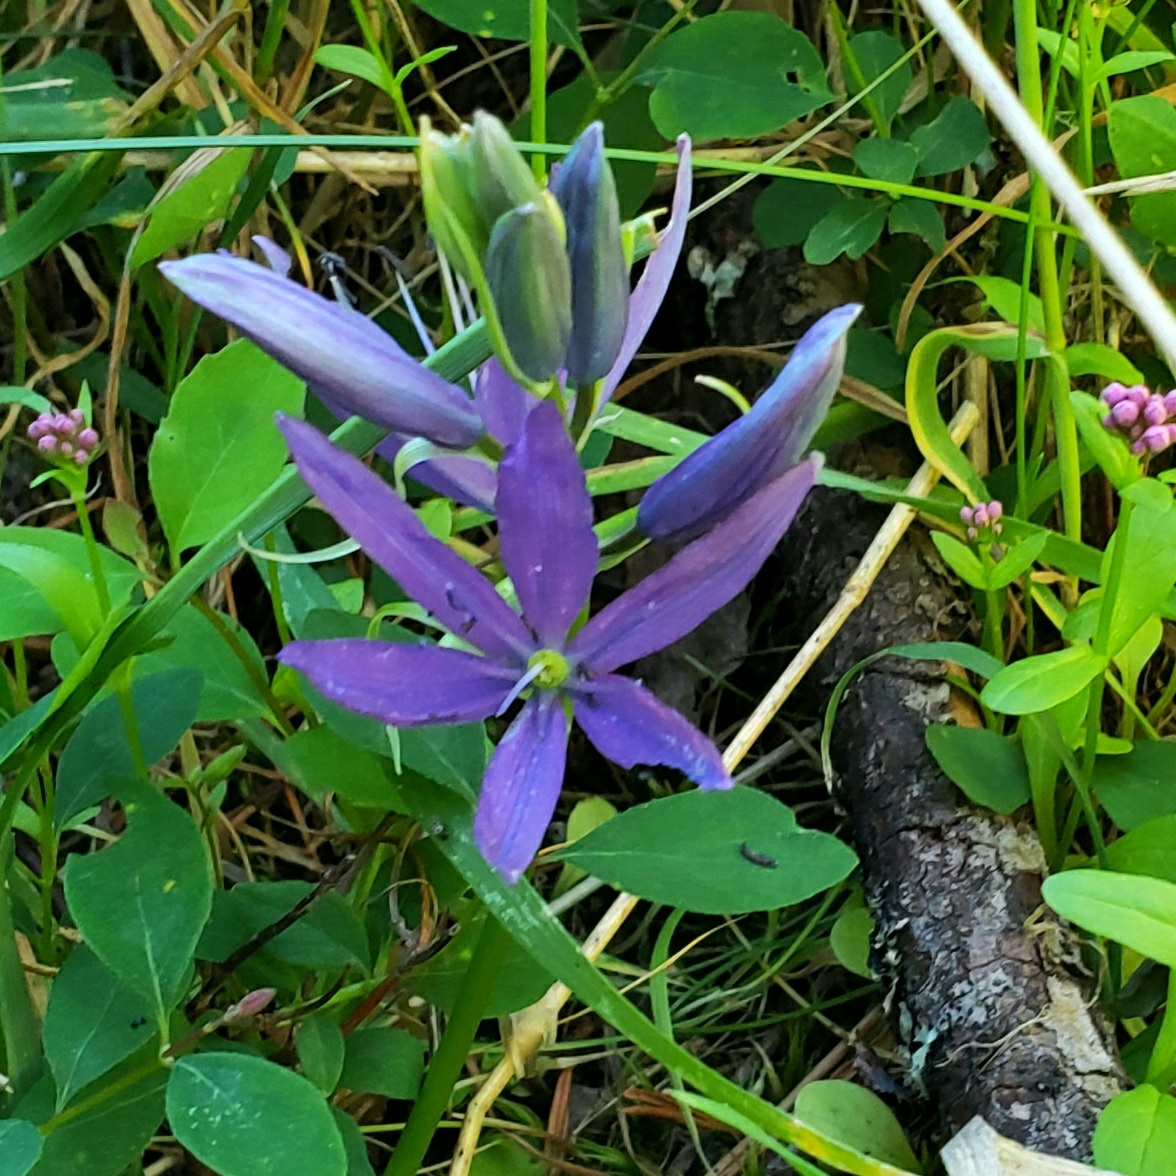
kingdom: Plantae
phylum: Tracheophyta
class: Liliopsida
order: Asparagales
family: Asparagaceae
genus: Camassia
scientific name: Camassia leichtlinii
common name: Leichtlin's camas
